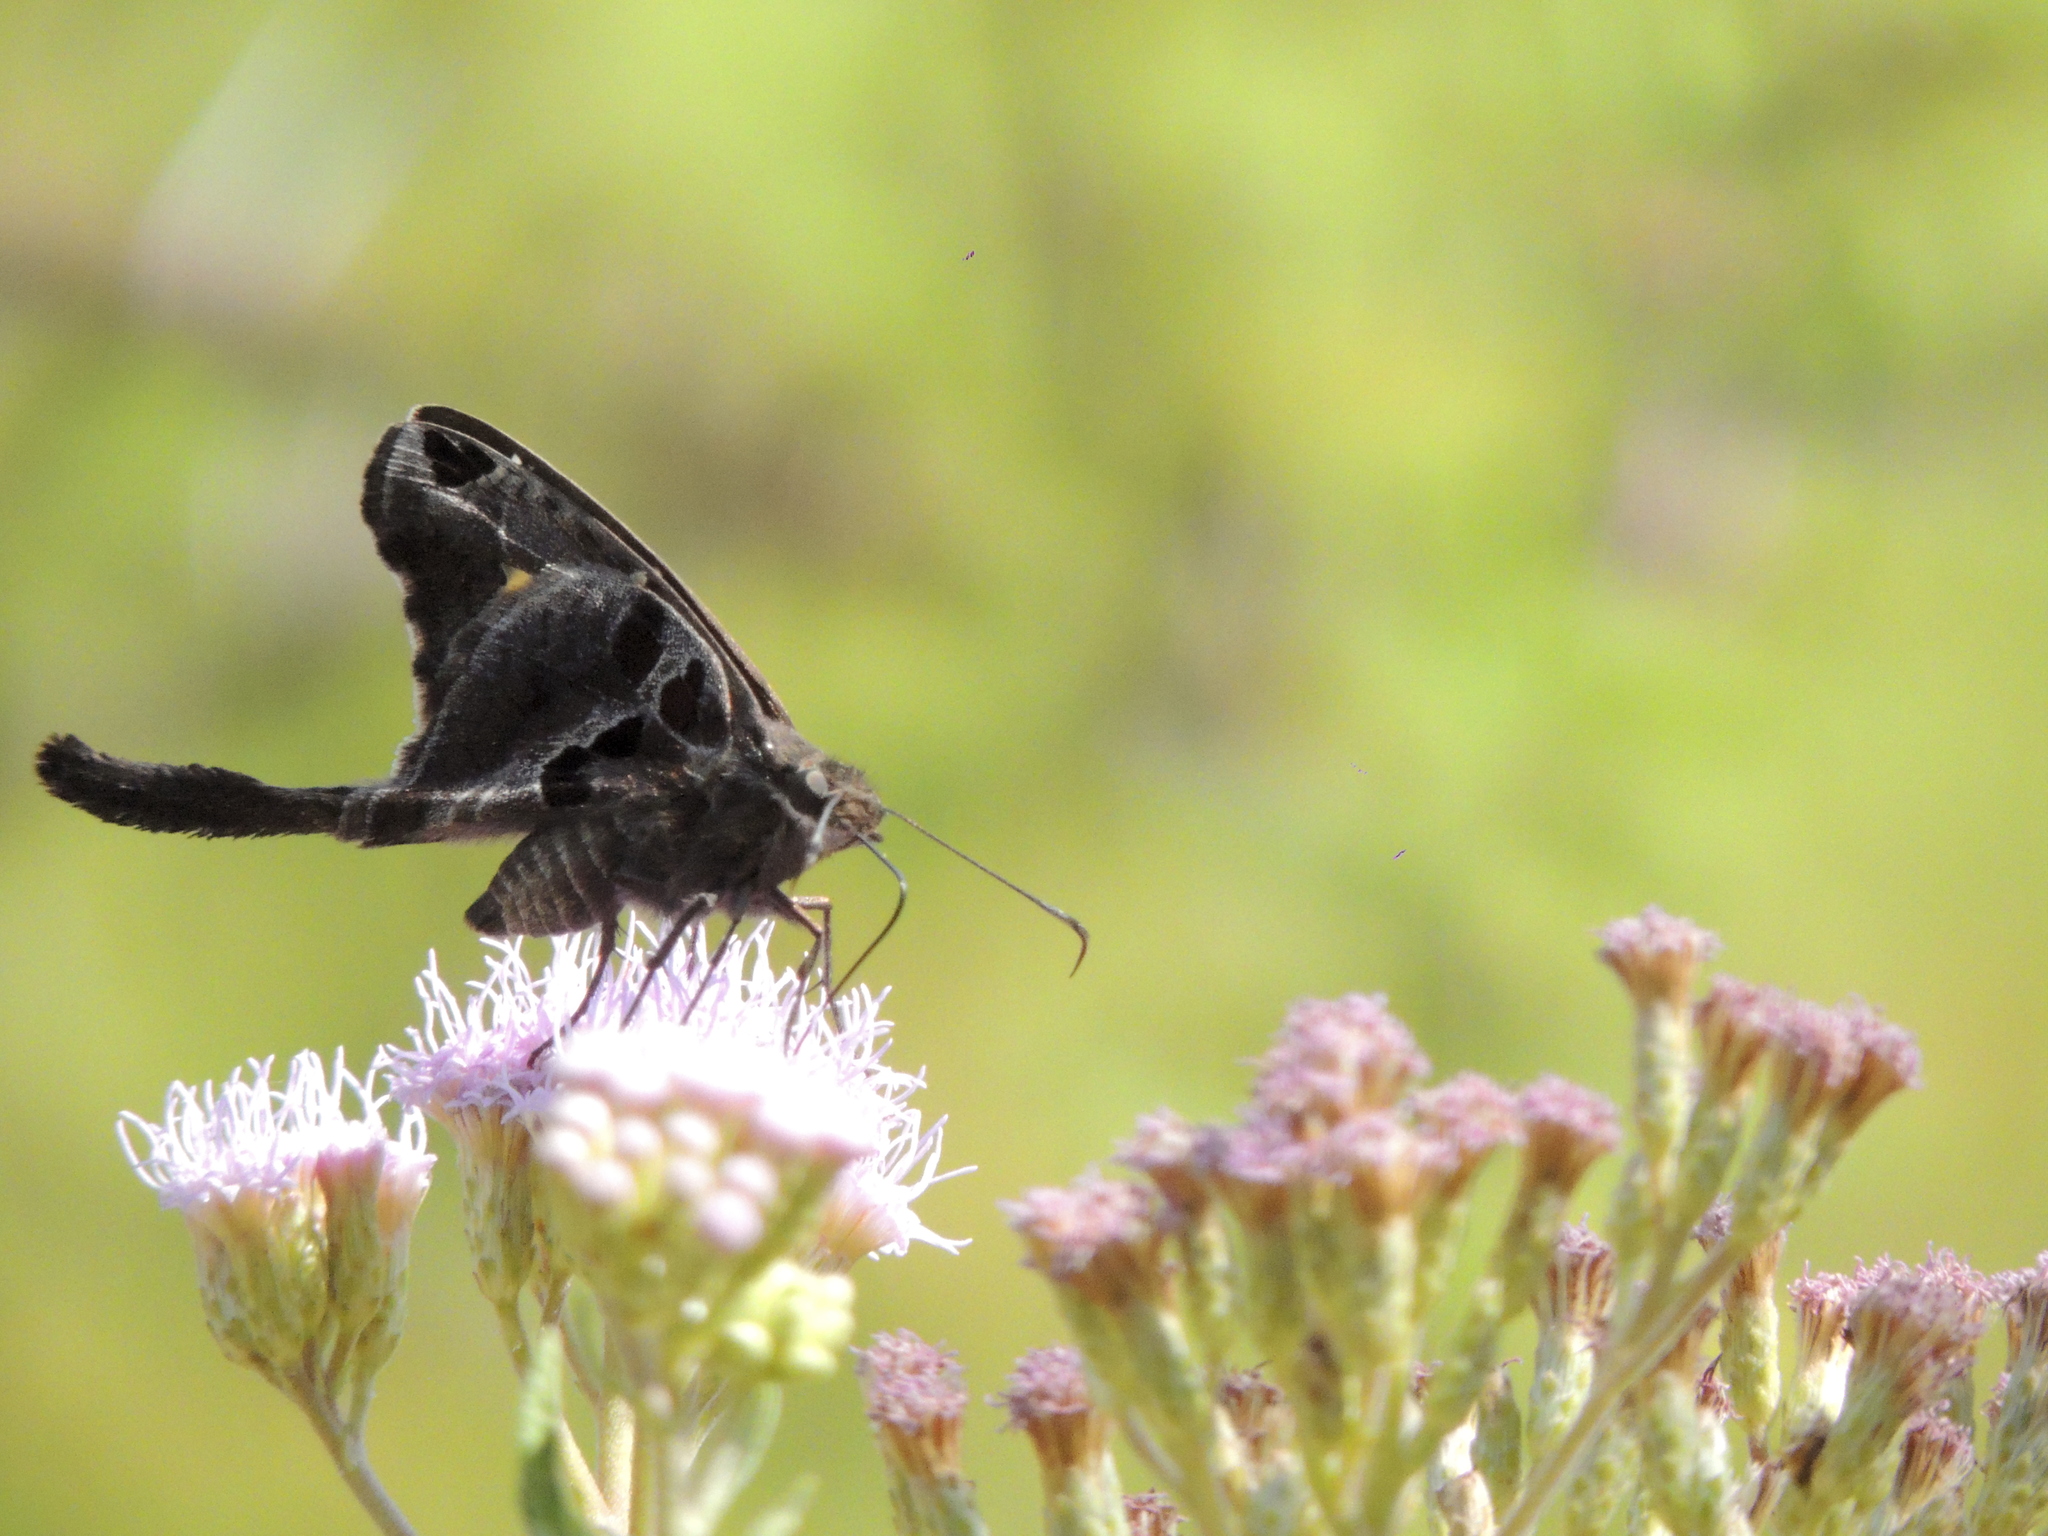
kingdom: Animalia
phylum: Arthropoda
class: Insecta
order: Lepidoptera
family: Hesperiidae
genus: Chioides
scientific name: Chioides catillus
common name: Silverbanded skipper
